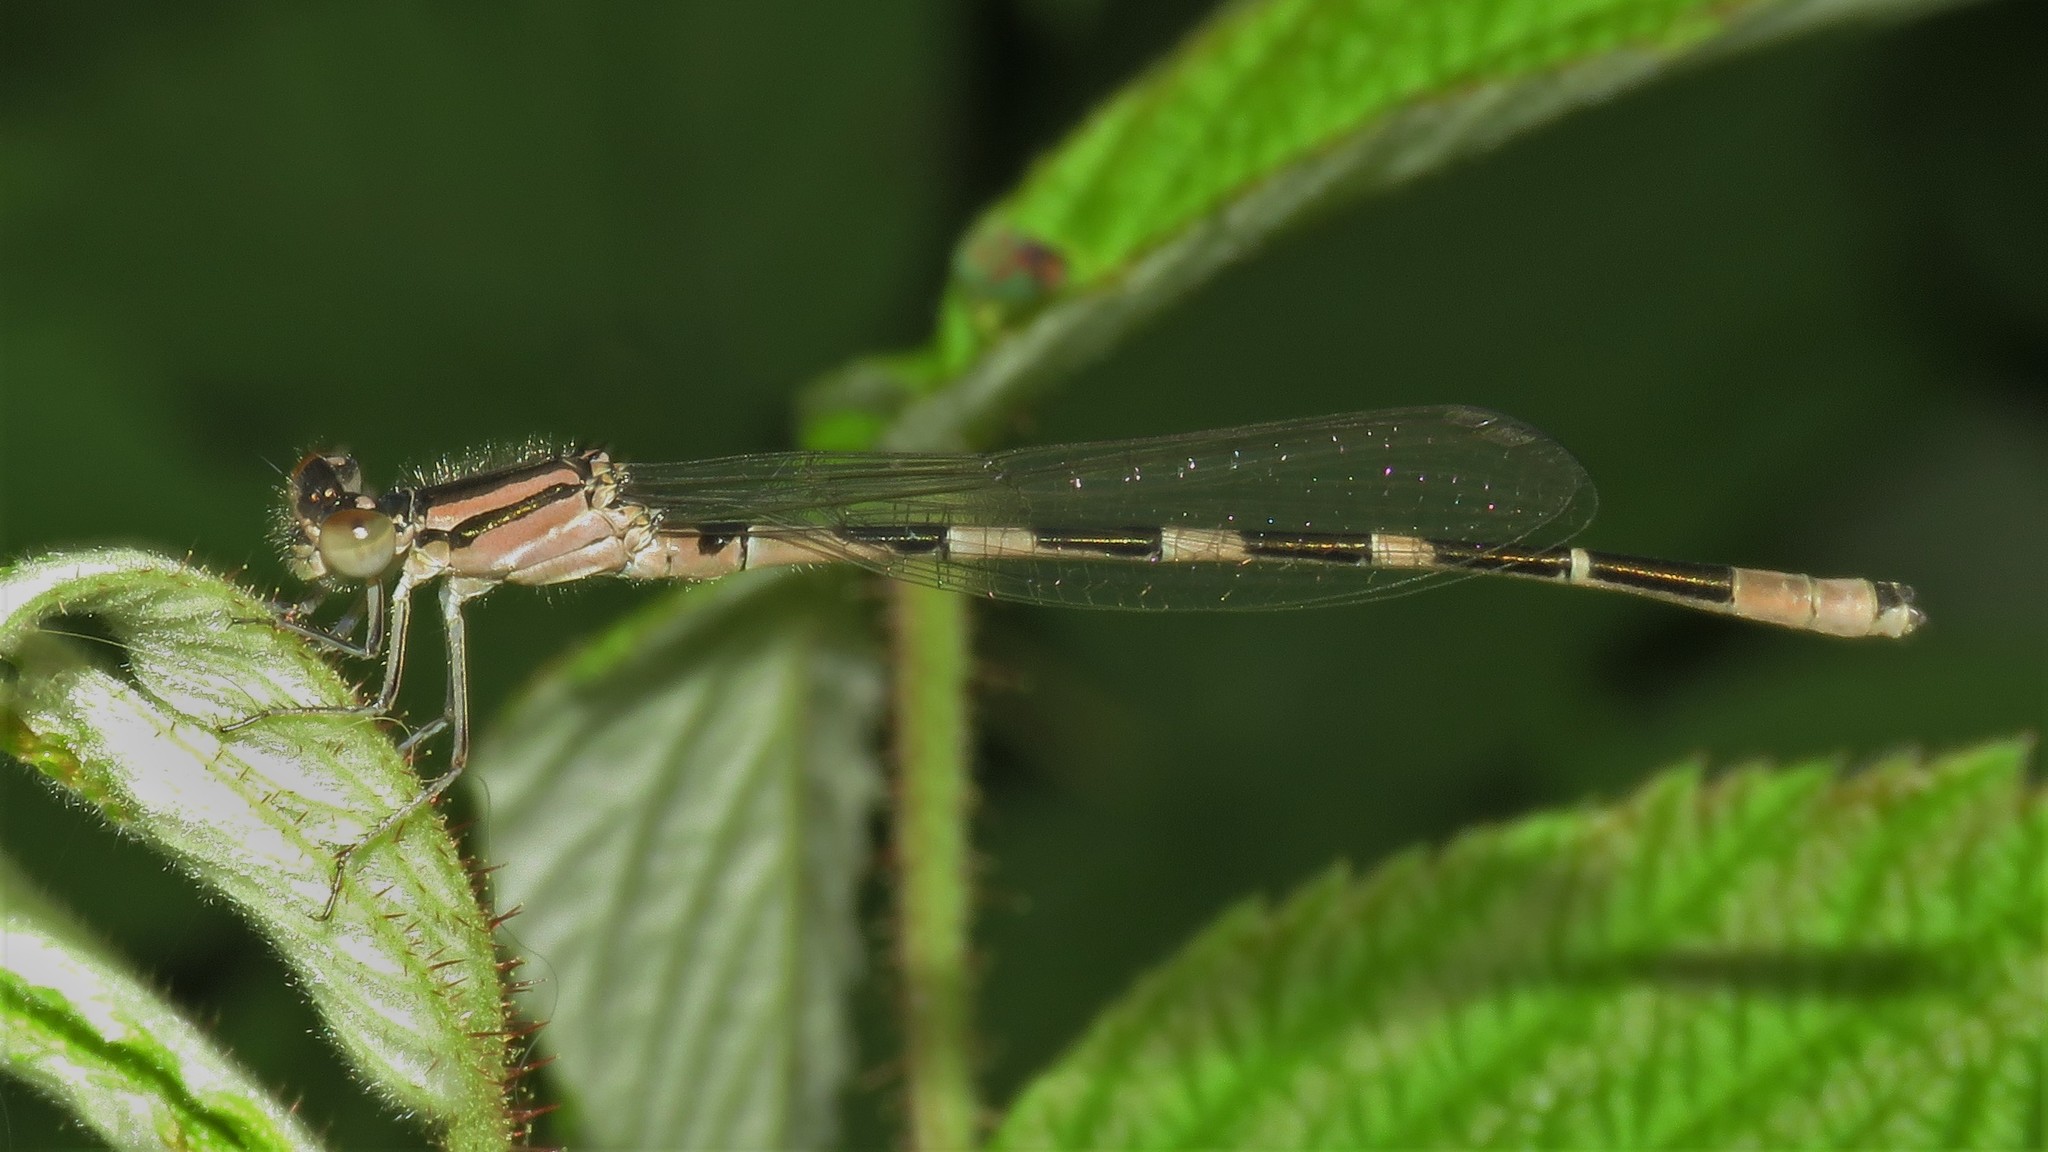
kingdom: Animalia
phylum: Arthropoda
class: Insecta
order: Odonata
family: Coenagrionidae
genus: Enallagma
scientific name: Enallagma carunculatum
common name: Tule bluet
